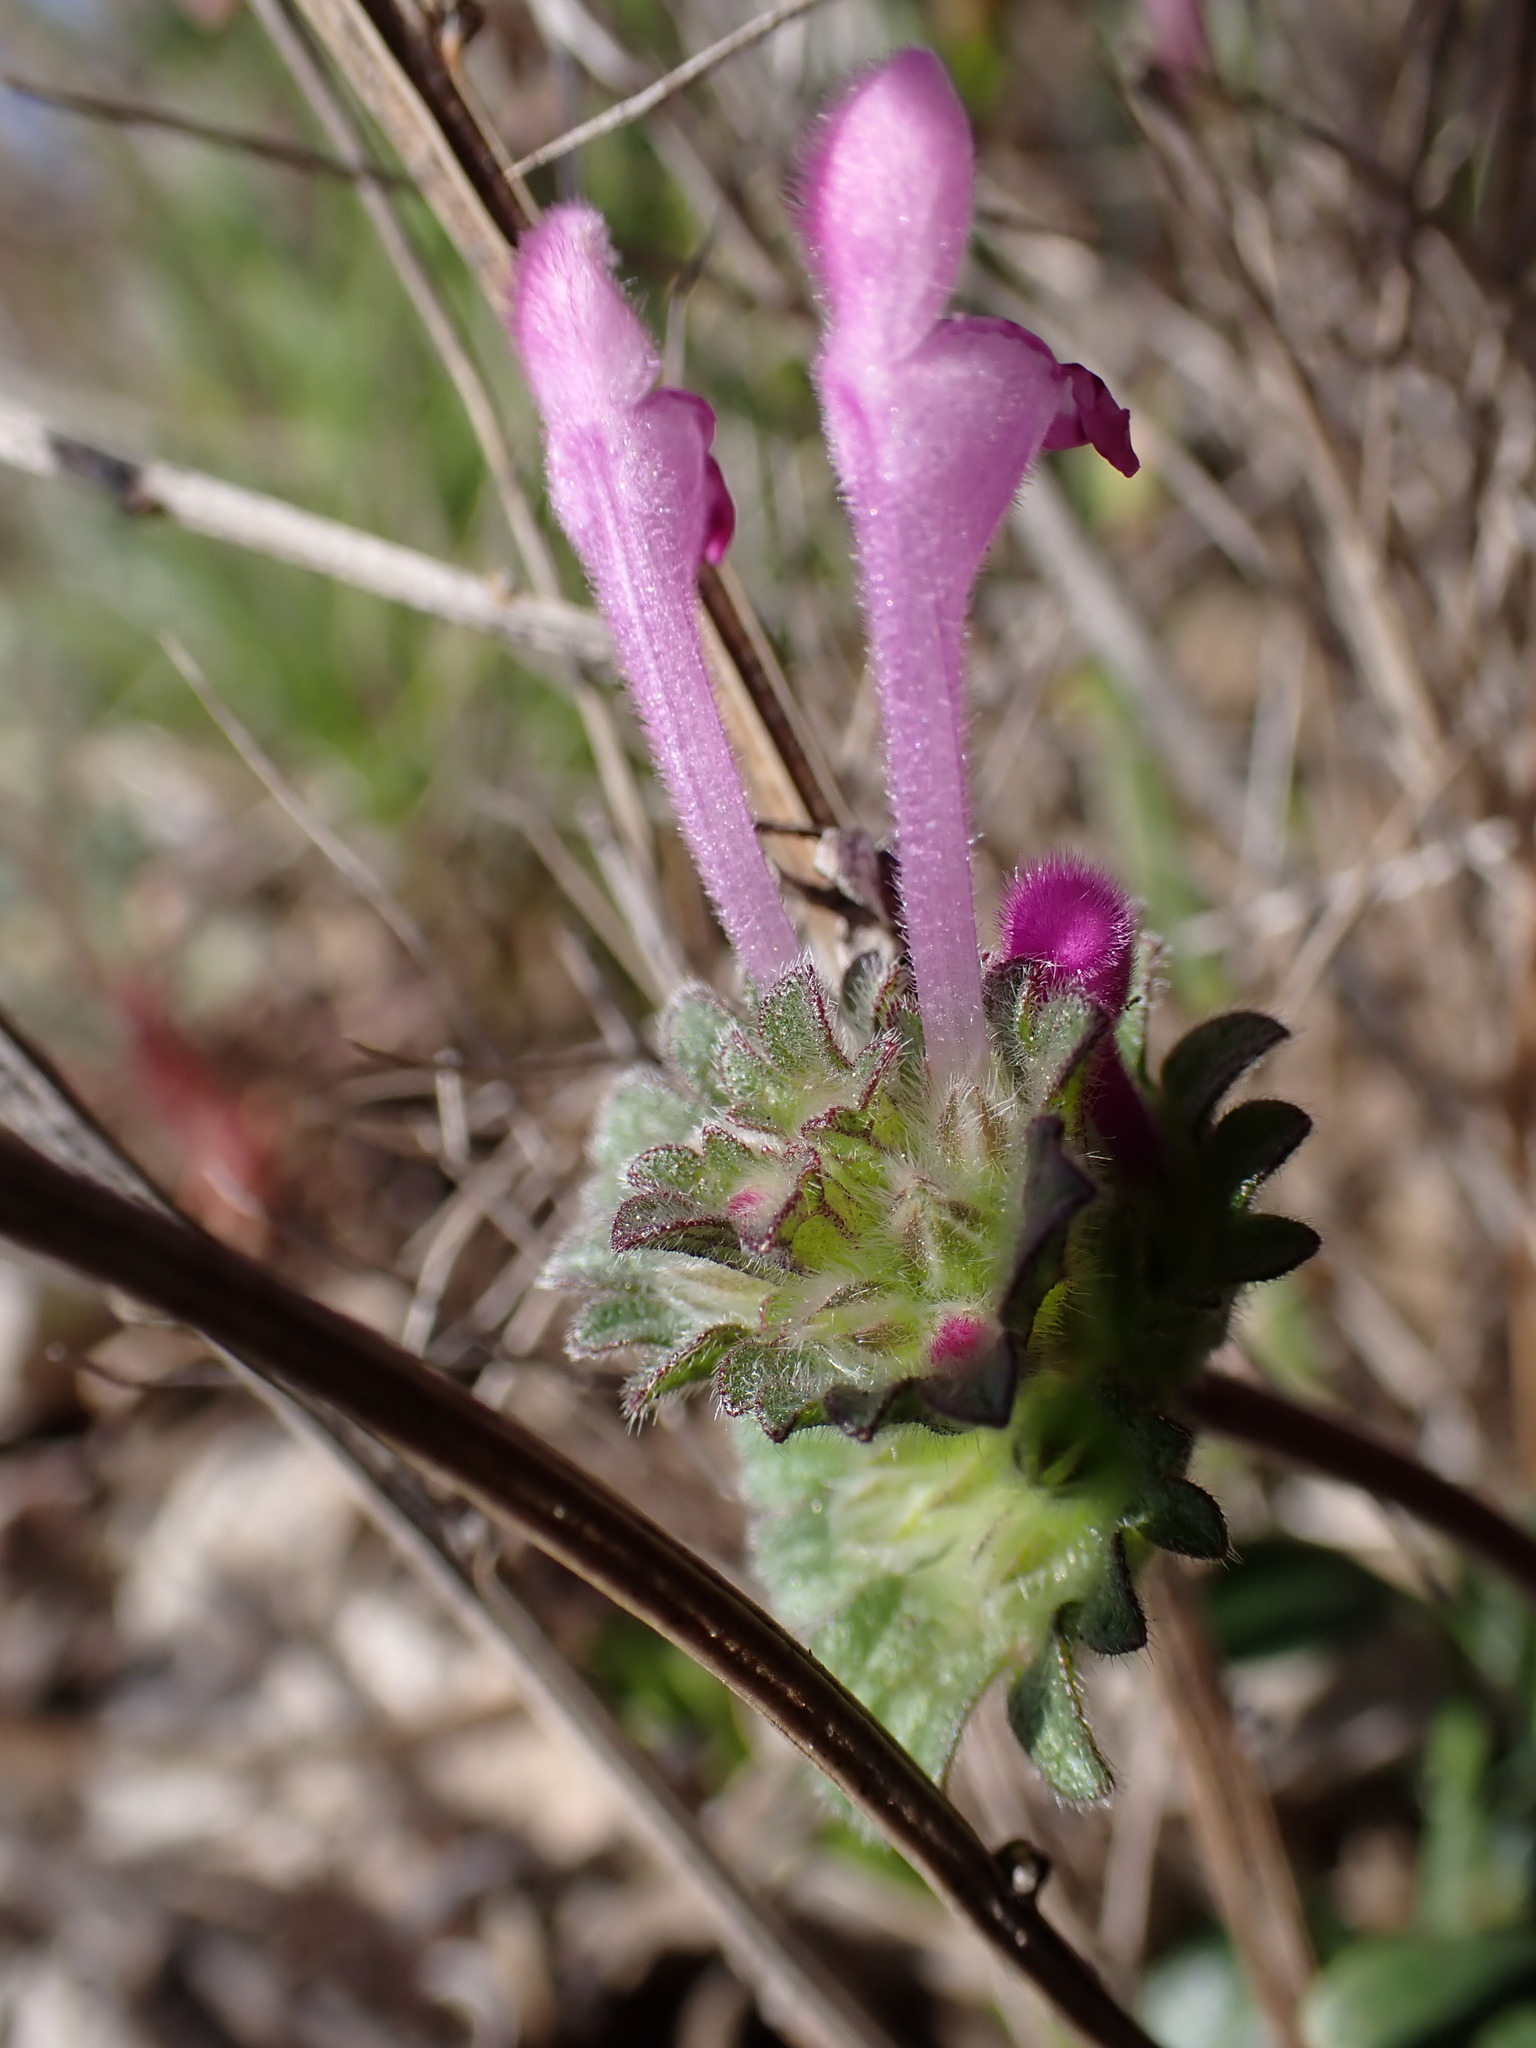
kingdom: Plantae
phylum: Tracheophyta
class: Magnoliopsida
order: Lamiales
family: Lamiaceae
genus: Lamium
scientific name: Lamium amplexicaule
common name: Henbit dead-nettle
